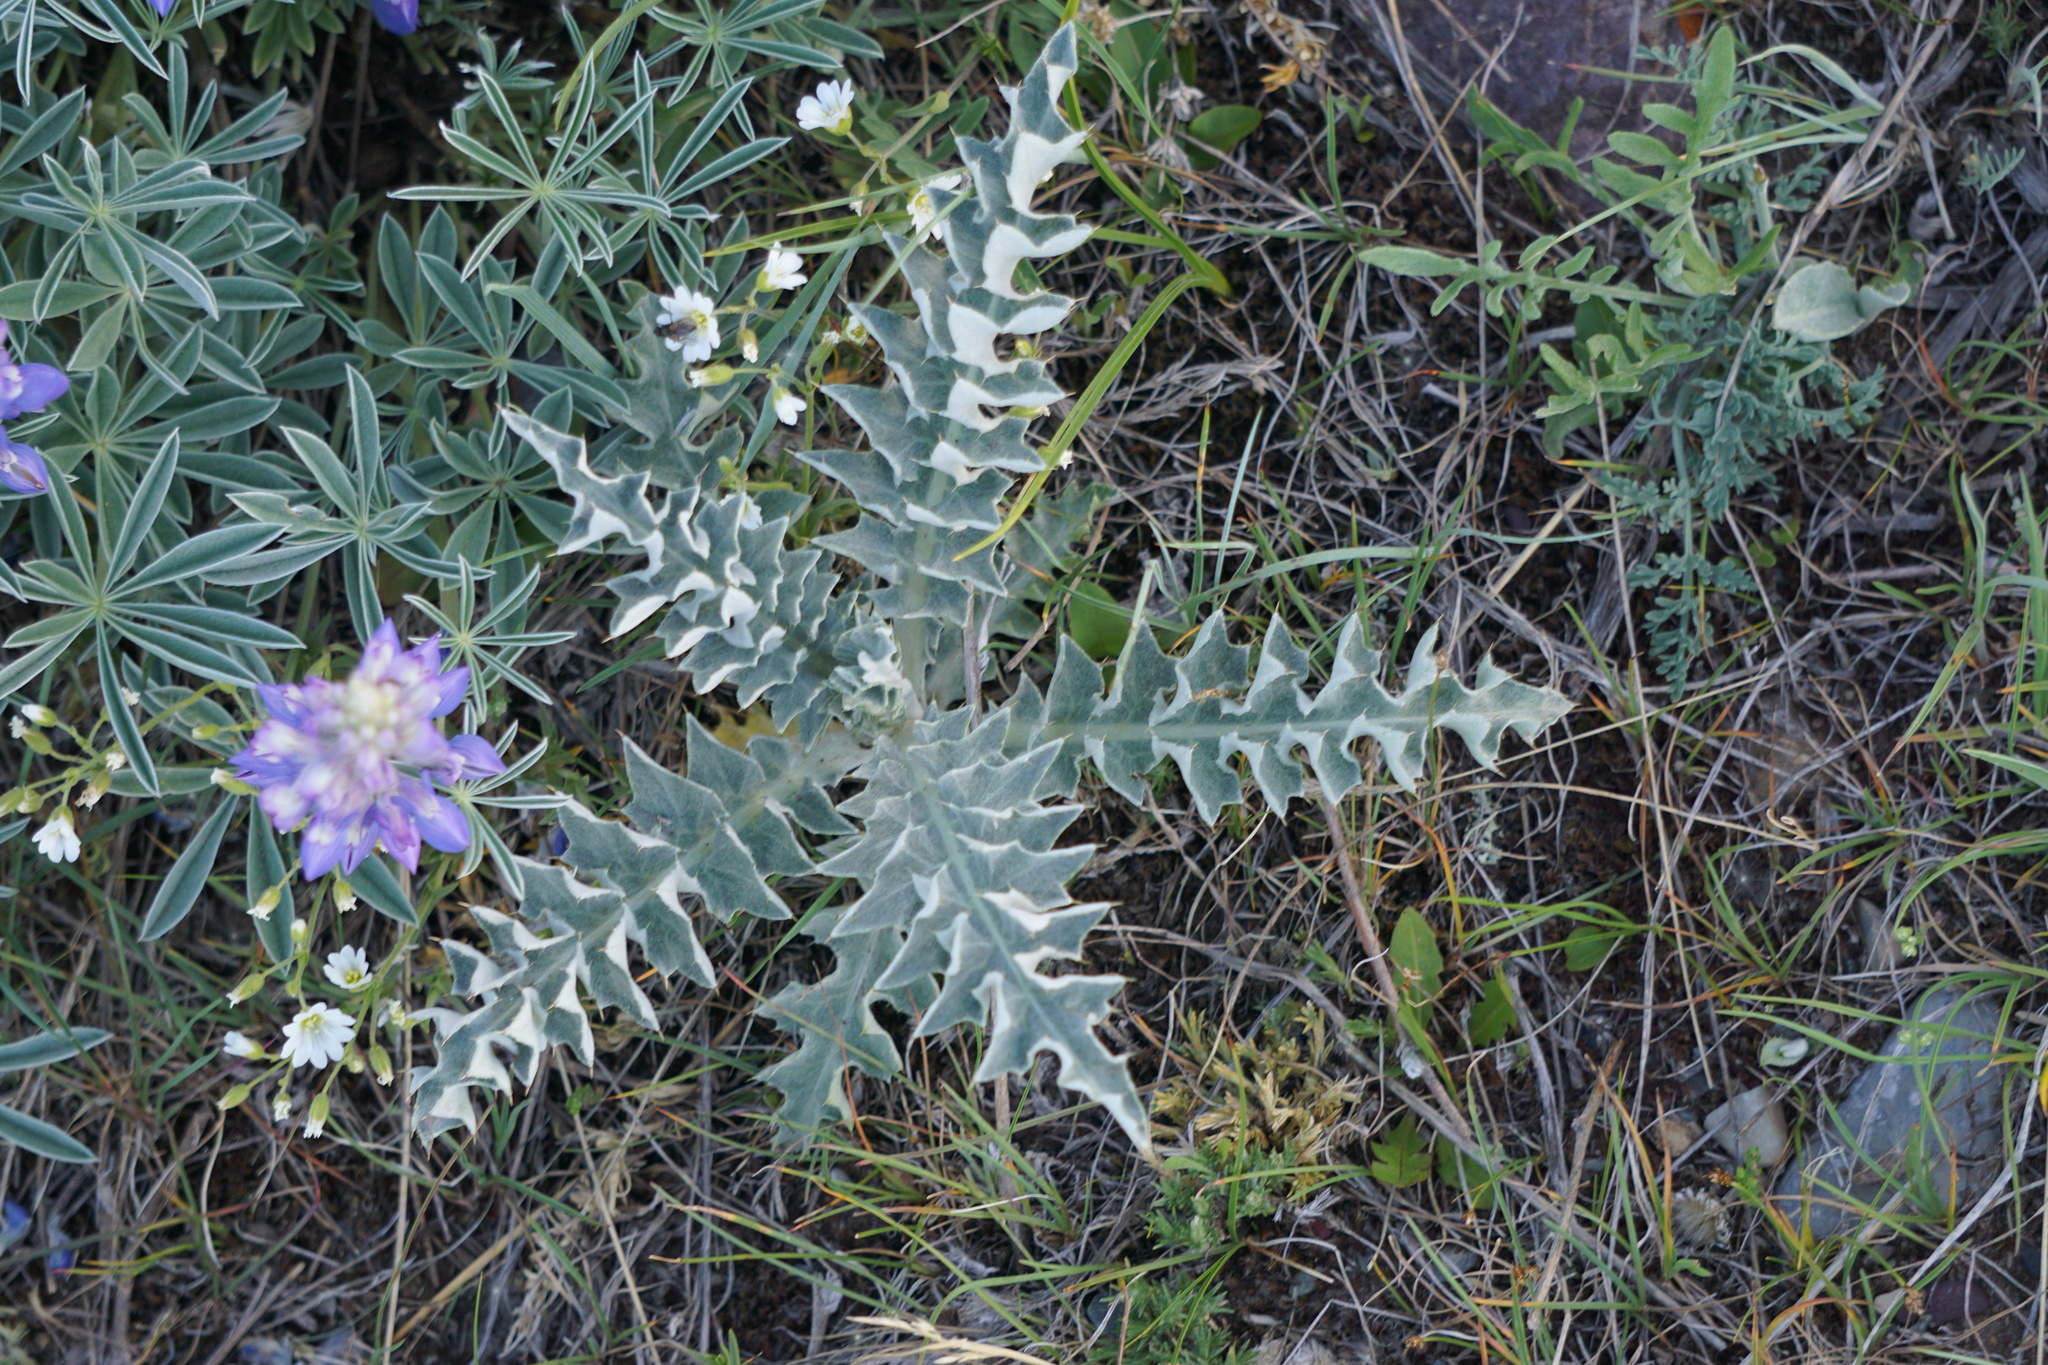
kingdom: Plantae
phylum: Tracheophyta
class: Magnoliopsida
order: Asterales
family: Asteraceae
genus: Cirsium
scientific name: Cirsium undulatum
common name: Pasture thistle
